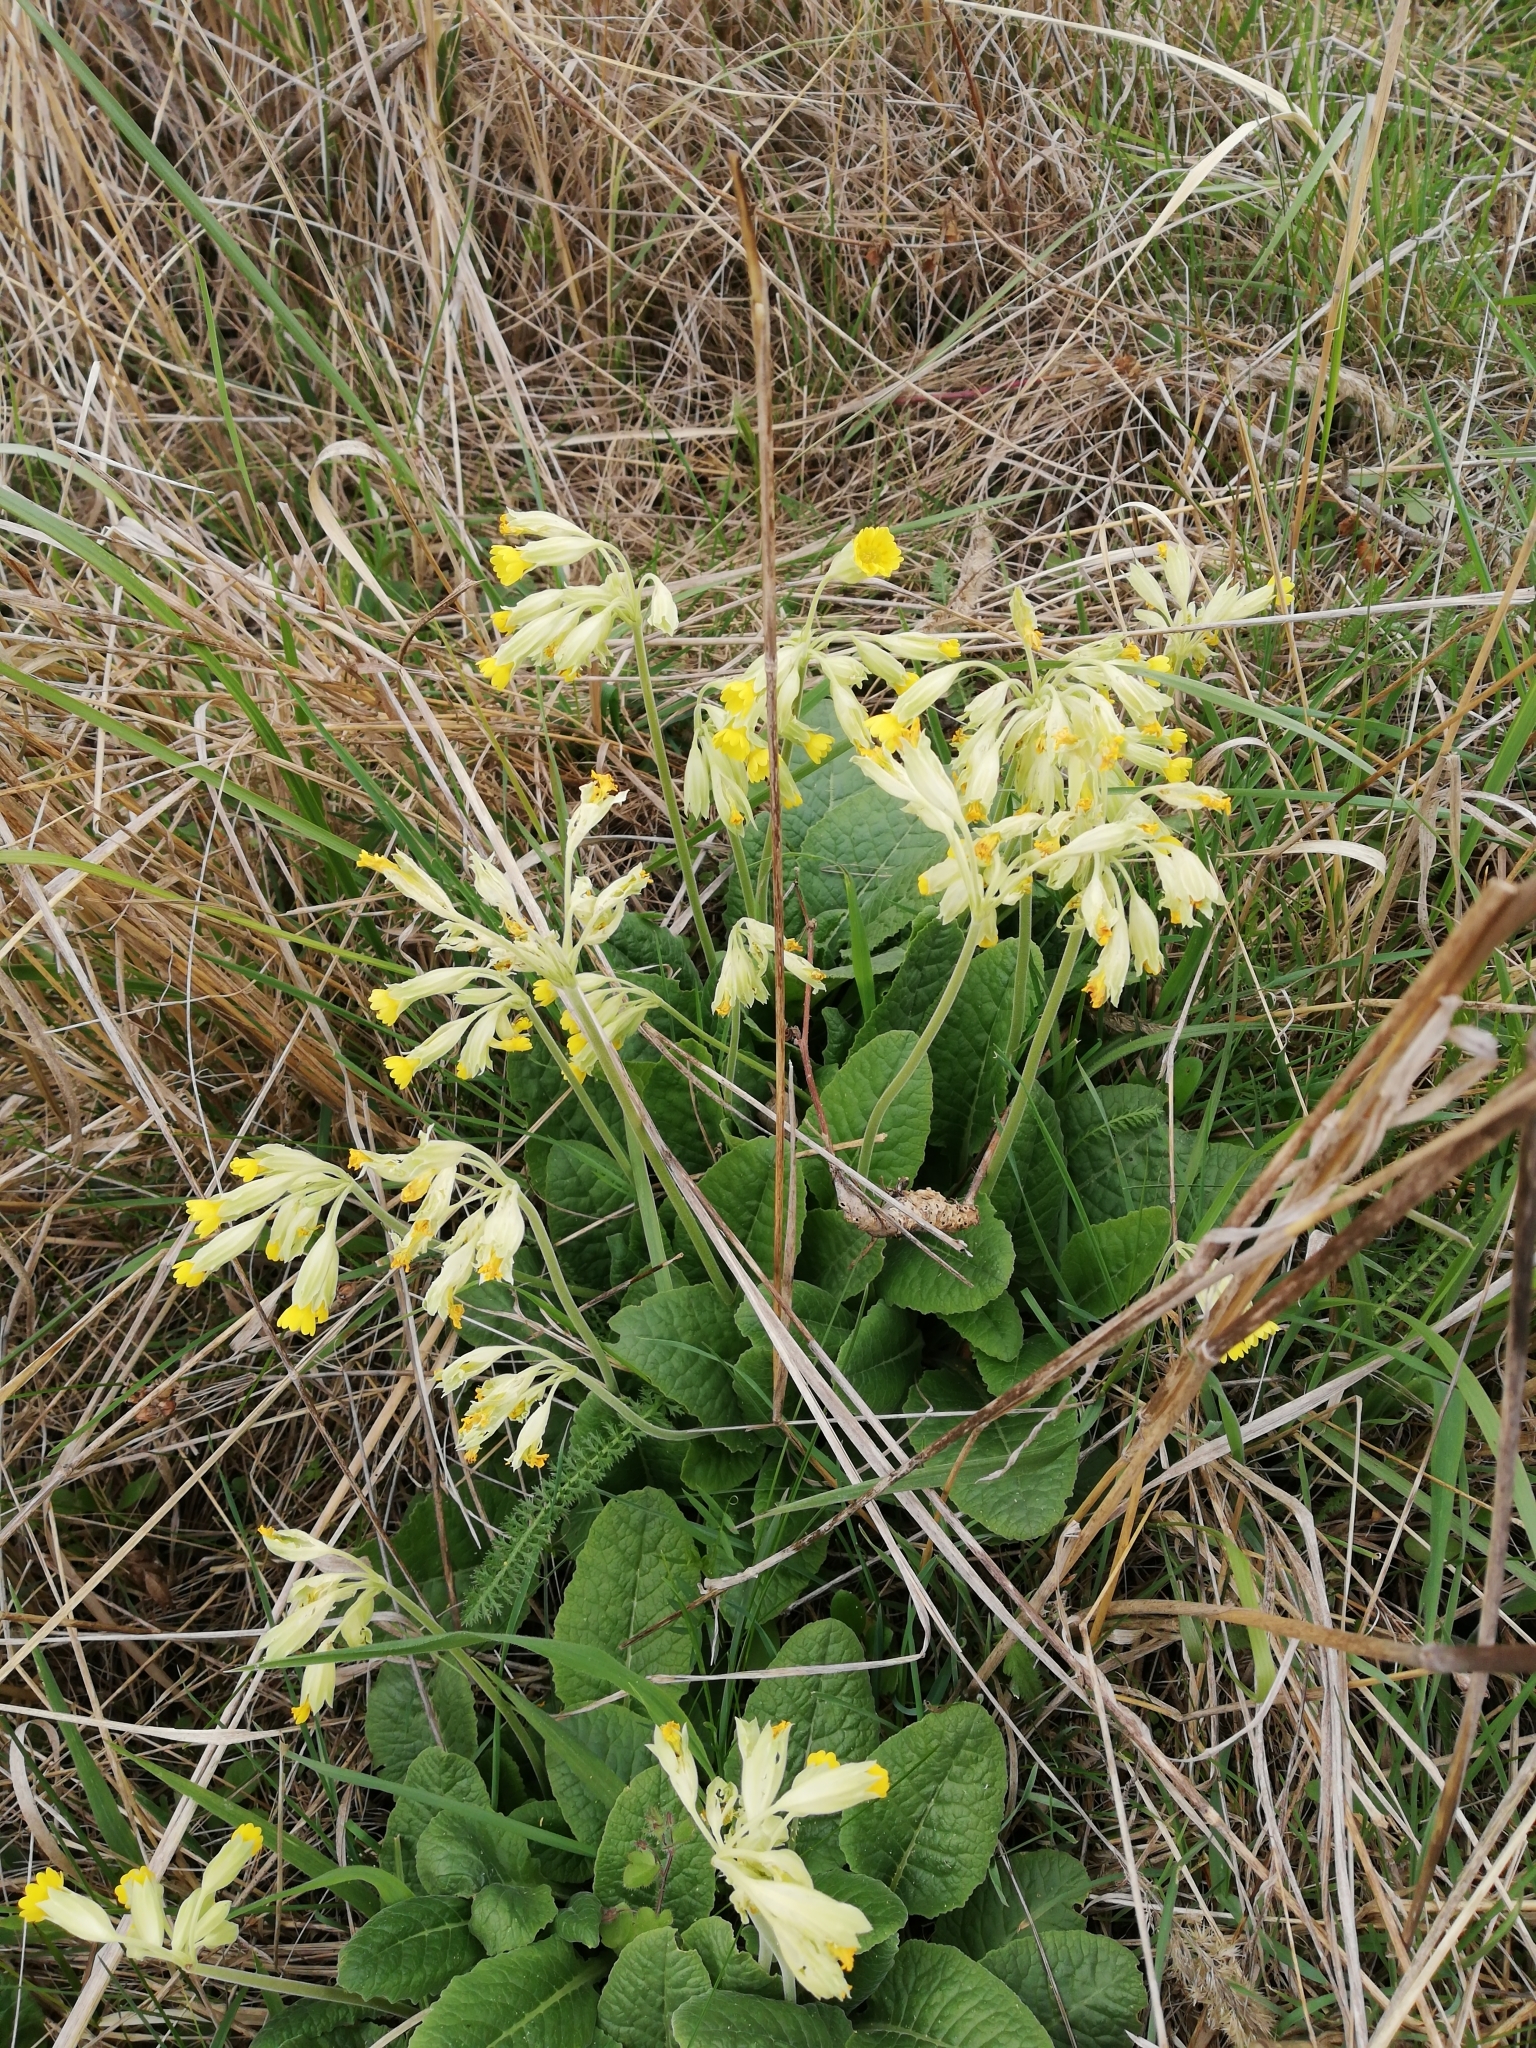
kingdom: Plantae
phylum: Tracheophyta
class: Magnoliopsida
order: Ericales
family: Primulaceae
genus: Primula
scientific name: Primula veris
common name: Cowslip
